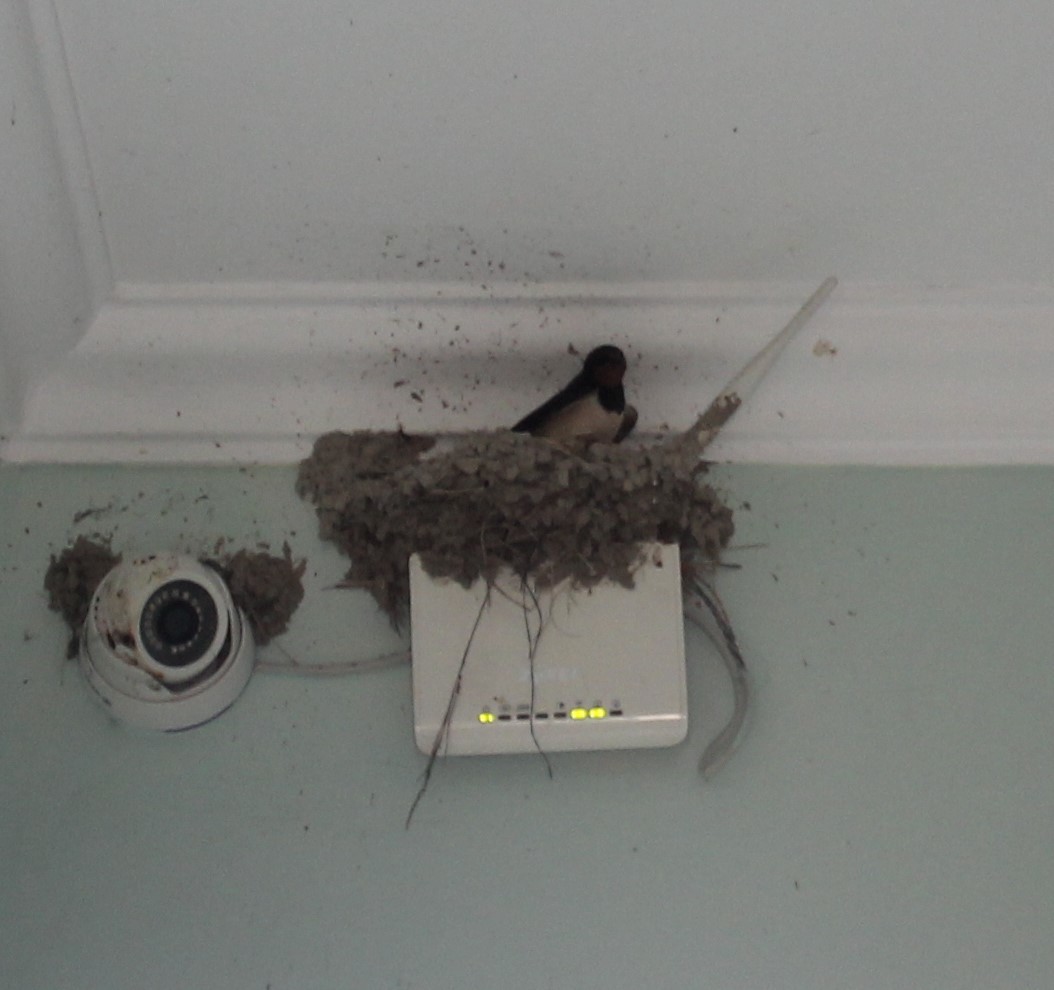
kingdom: Animalia
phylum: Chordata
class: Aves
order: Passeriformes
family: Hirundinidae
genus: Hirundo
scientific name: Hirundo rustica
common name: Barn swallow
